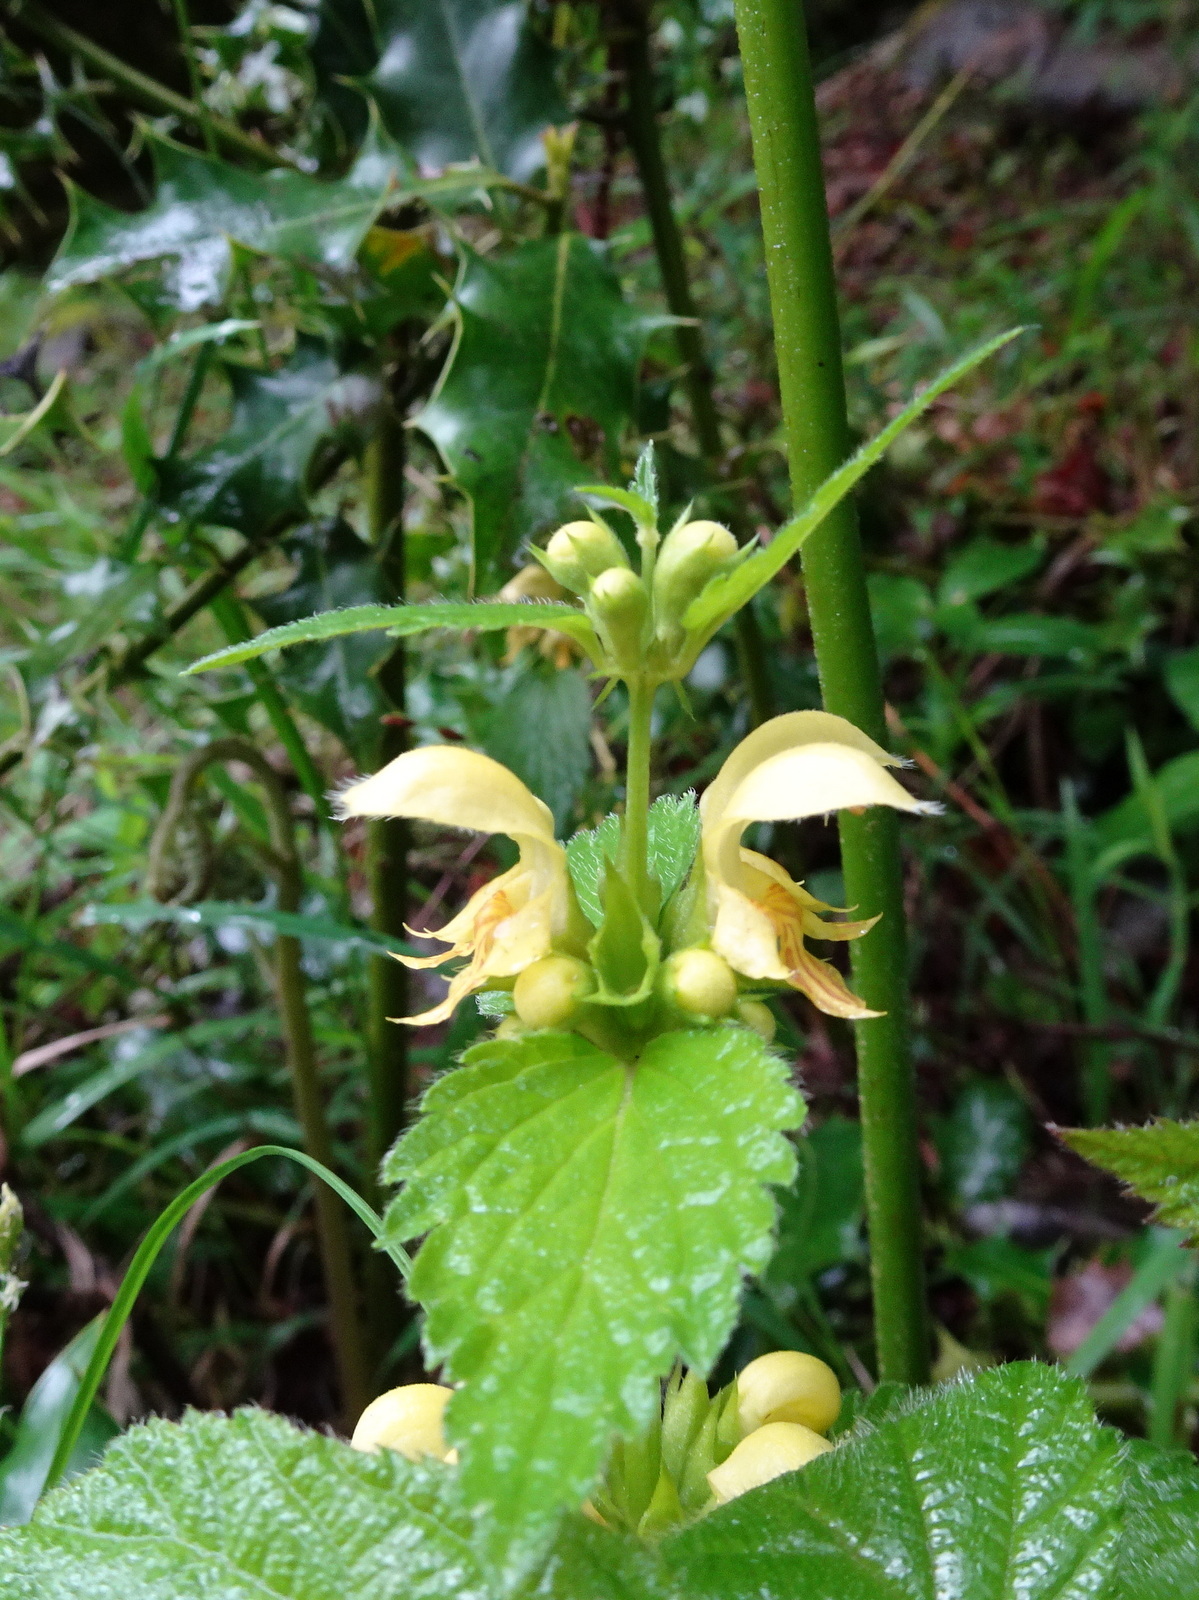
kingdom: Plantae
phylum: Tracheophyta
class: Magnoliopsida
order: Lamiales
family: Lamiaceae
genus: Lamium
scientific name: Lamium galeobdolon
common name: Yellow archangel
